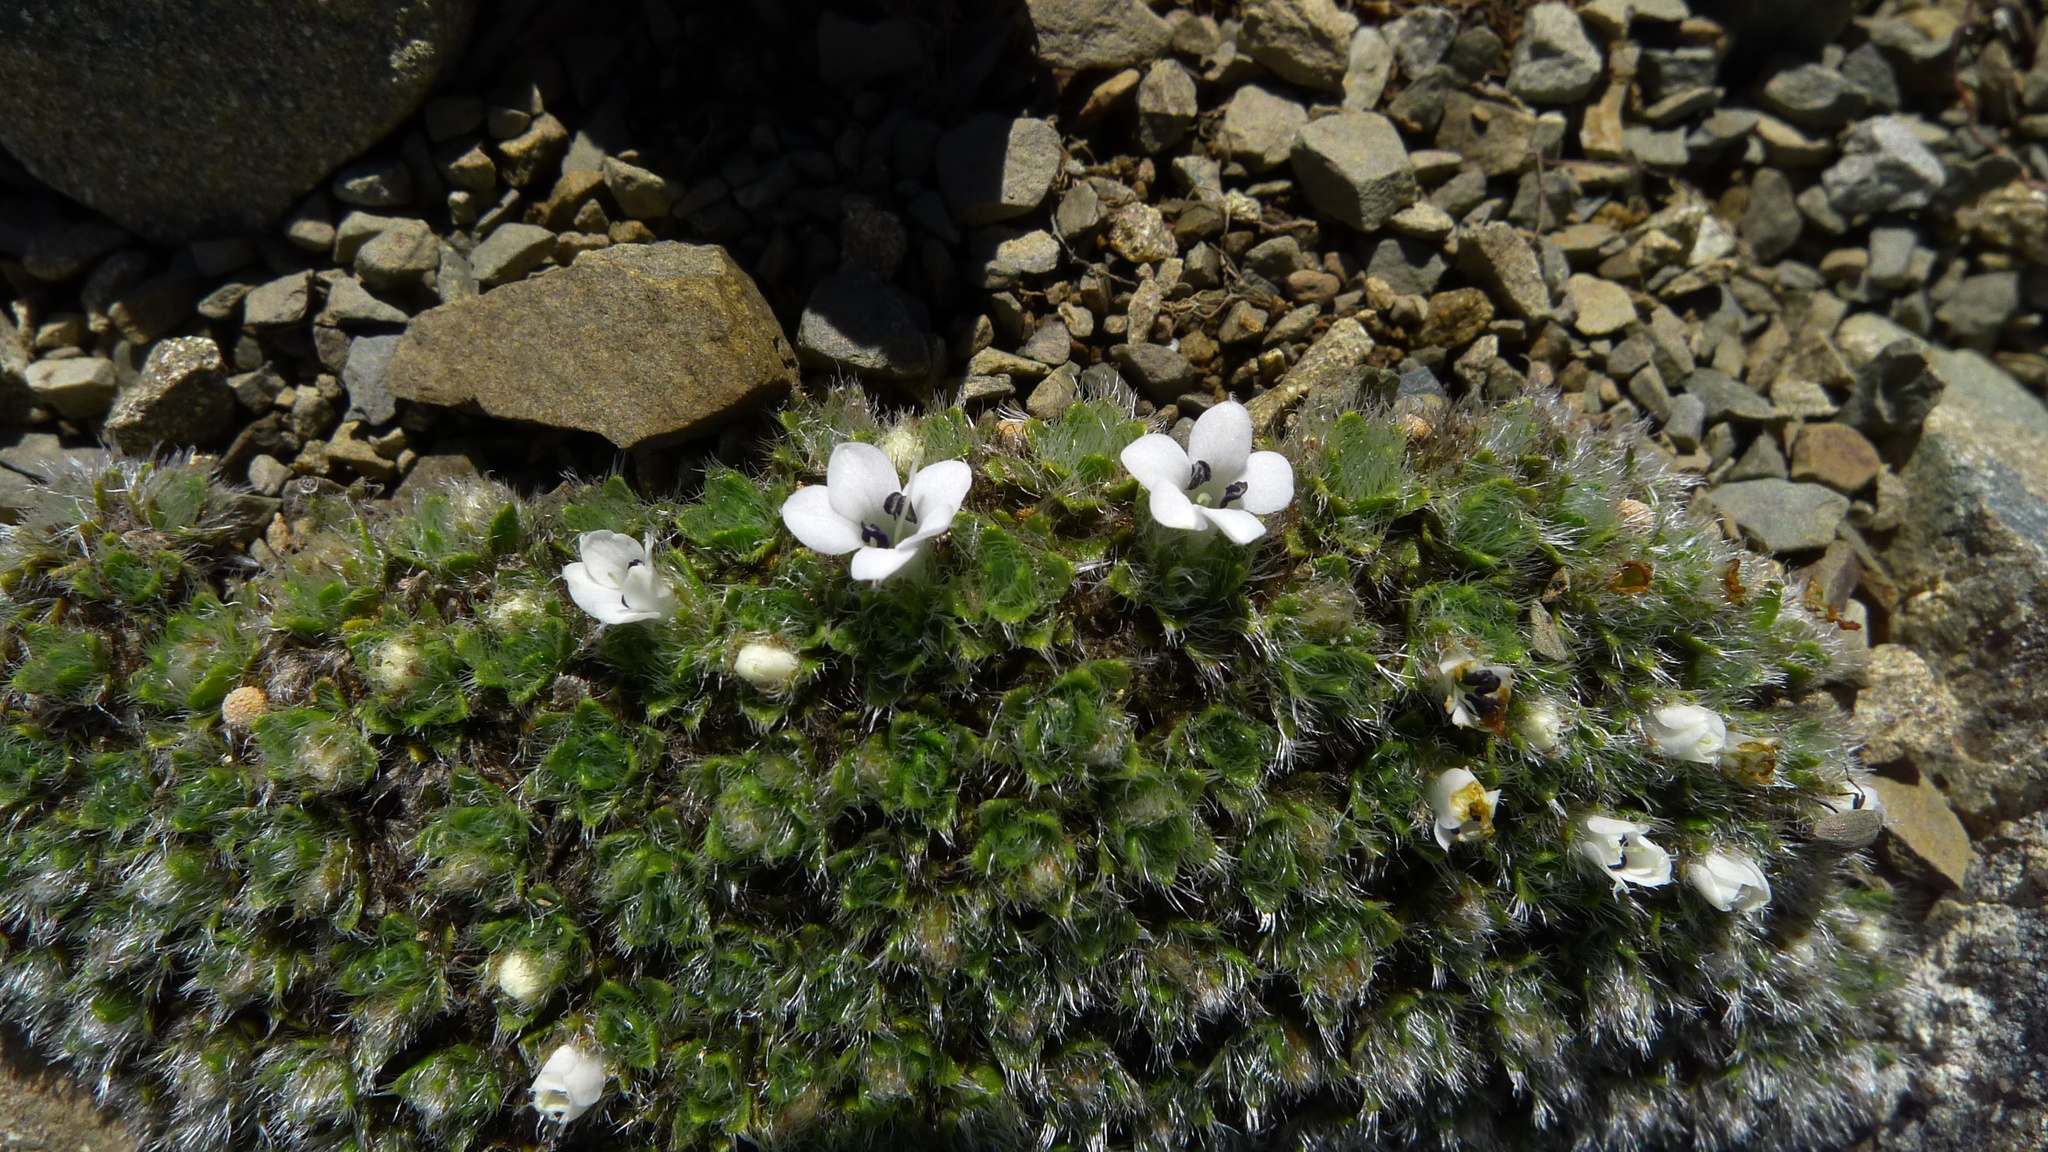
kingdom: Plantae
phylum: Tracheophyta
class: Magnoliopsida
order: Lamiales
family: Plantaginaceae
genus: Veronica
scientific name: Veronica pulvinaris
